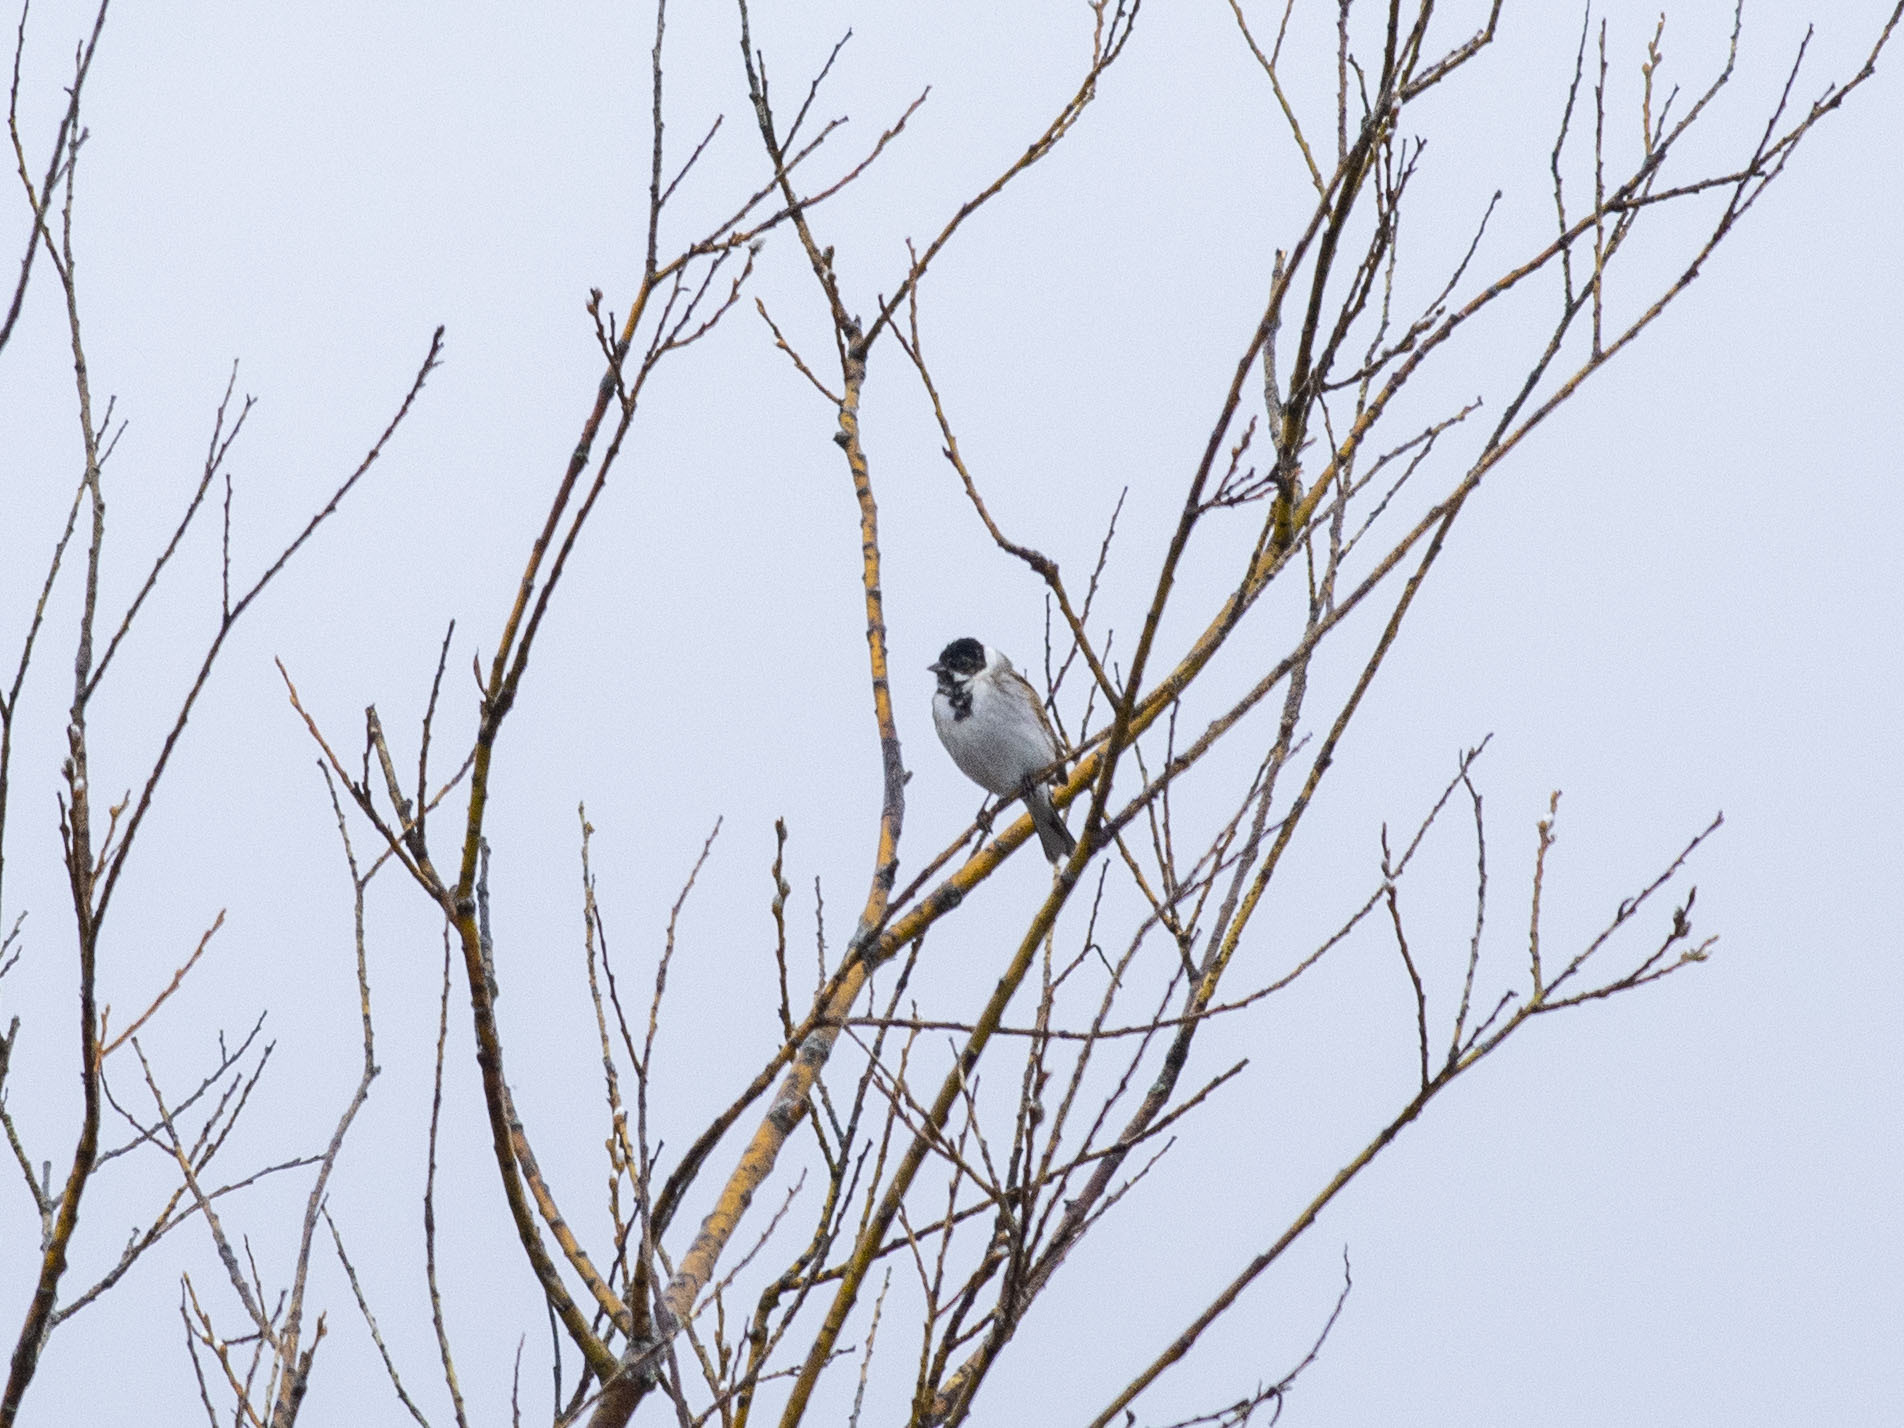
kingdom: Animalia
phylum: Chordata
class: Aves
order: Passeriformes
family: Emberizidae
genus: Emberiza
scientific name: Emberiza schoeniclus
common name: Reed bunting
